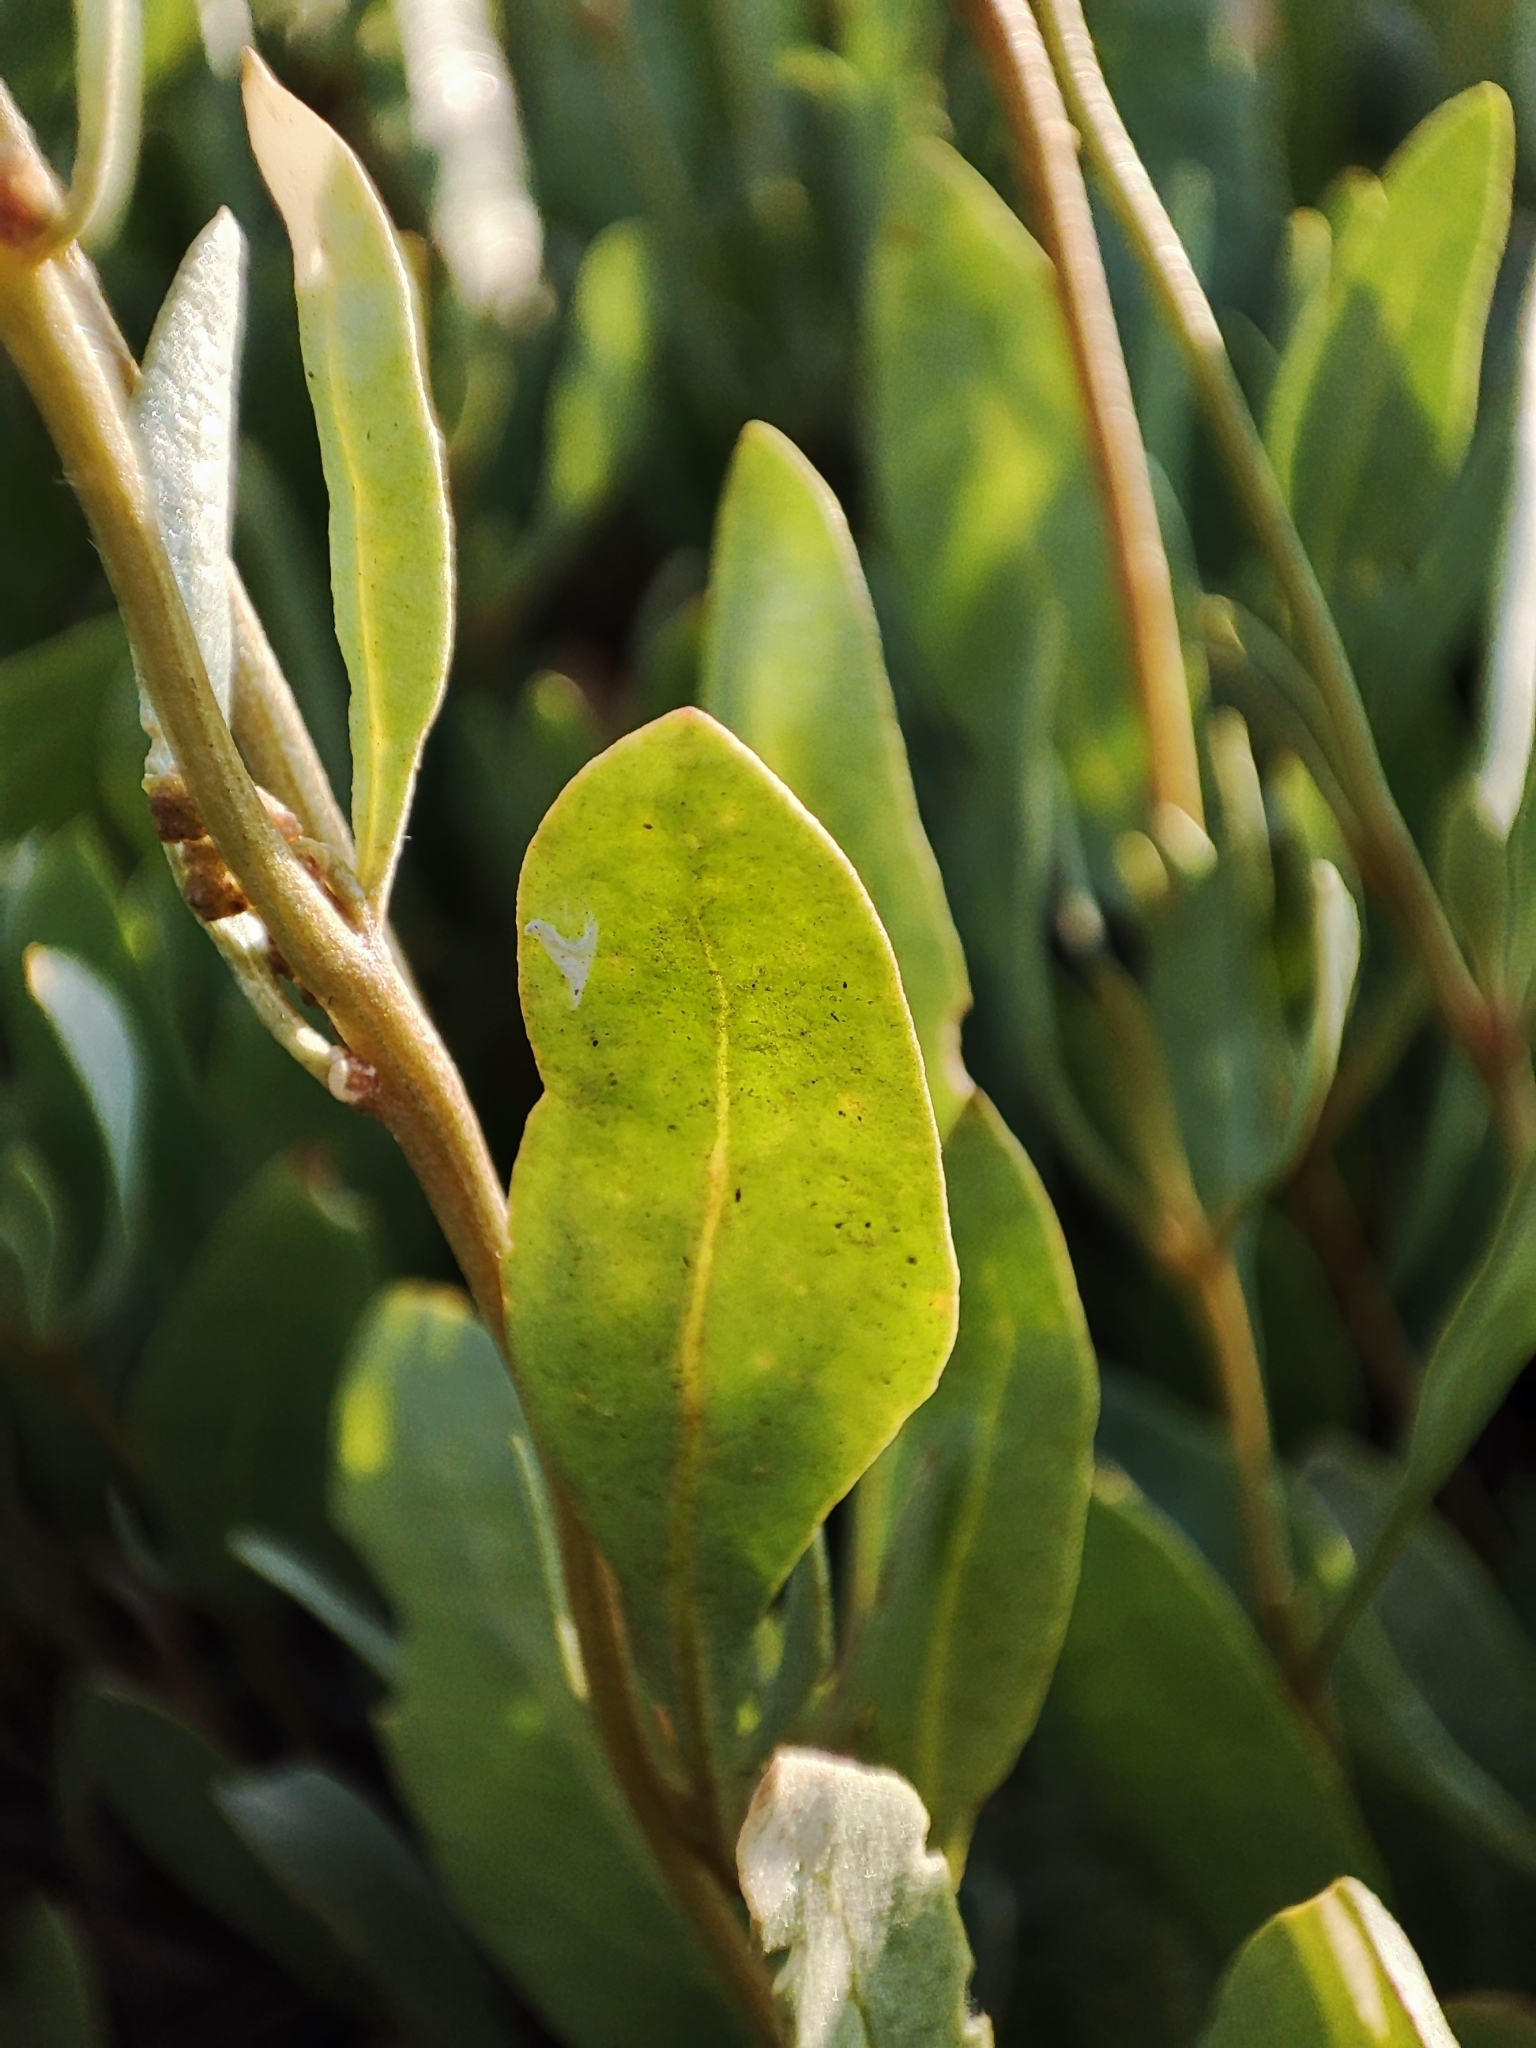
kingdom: Plantae
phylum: Tracheophyta
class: Magnoliopsida
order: Caryophyllales
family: Amaranthaceae
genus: Halimione
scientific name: Halimione verrucifera
